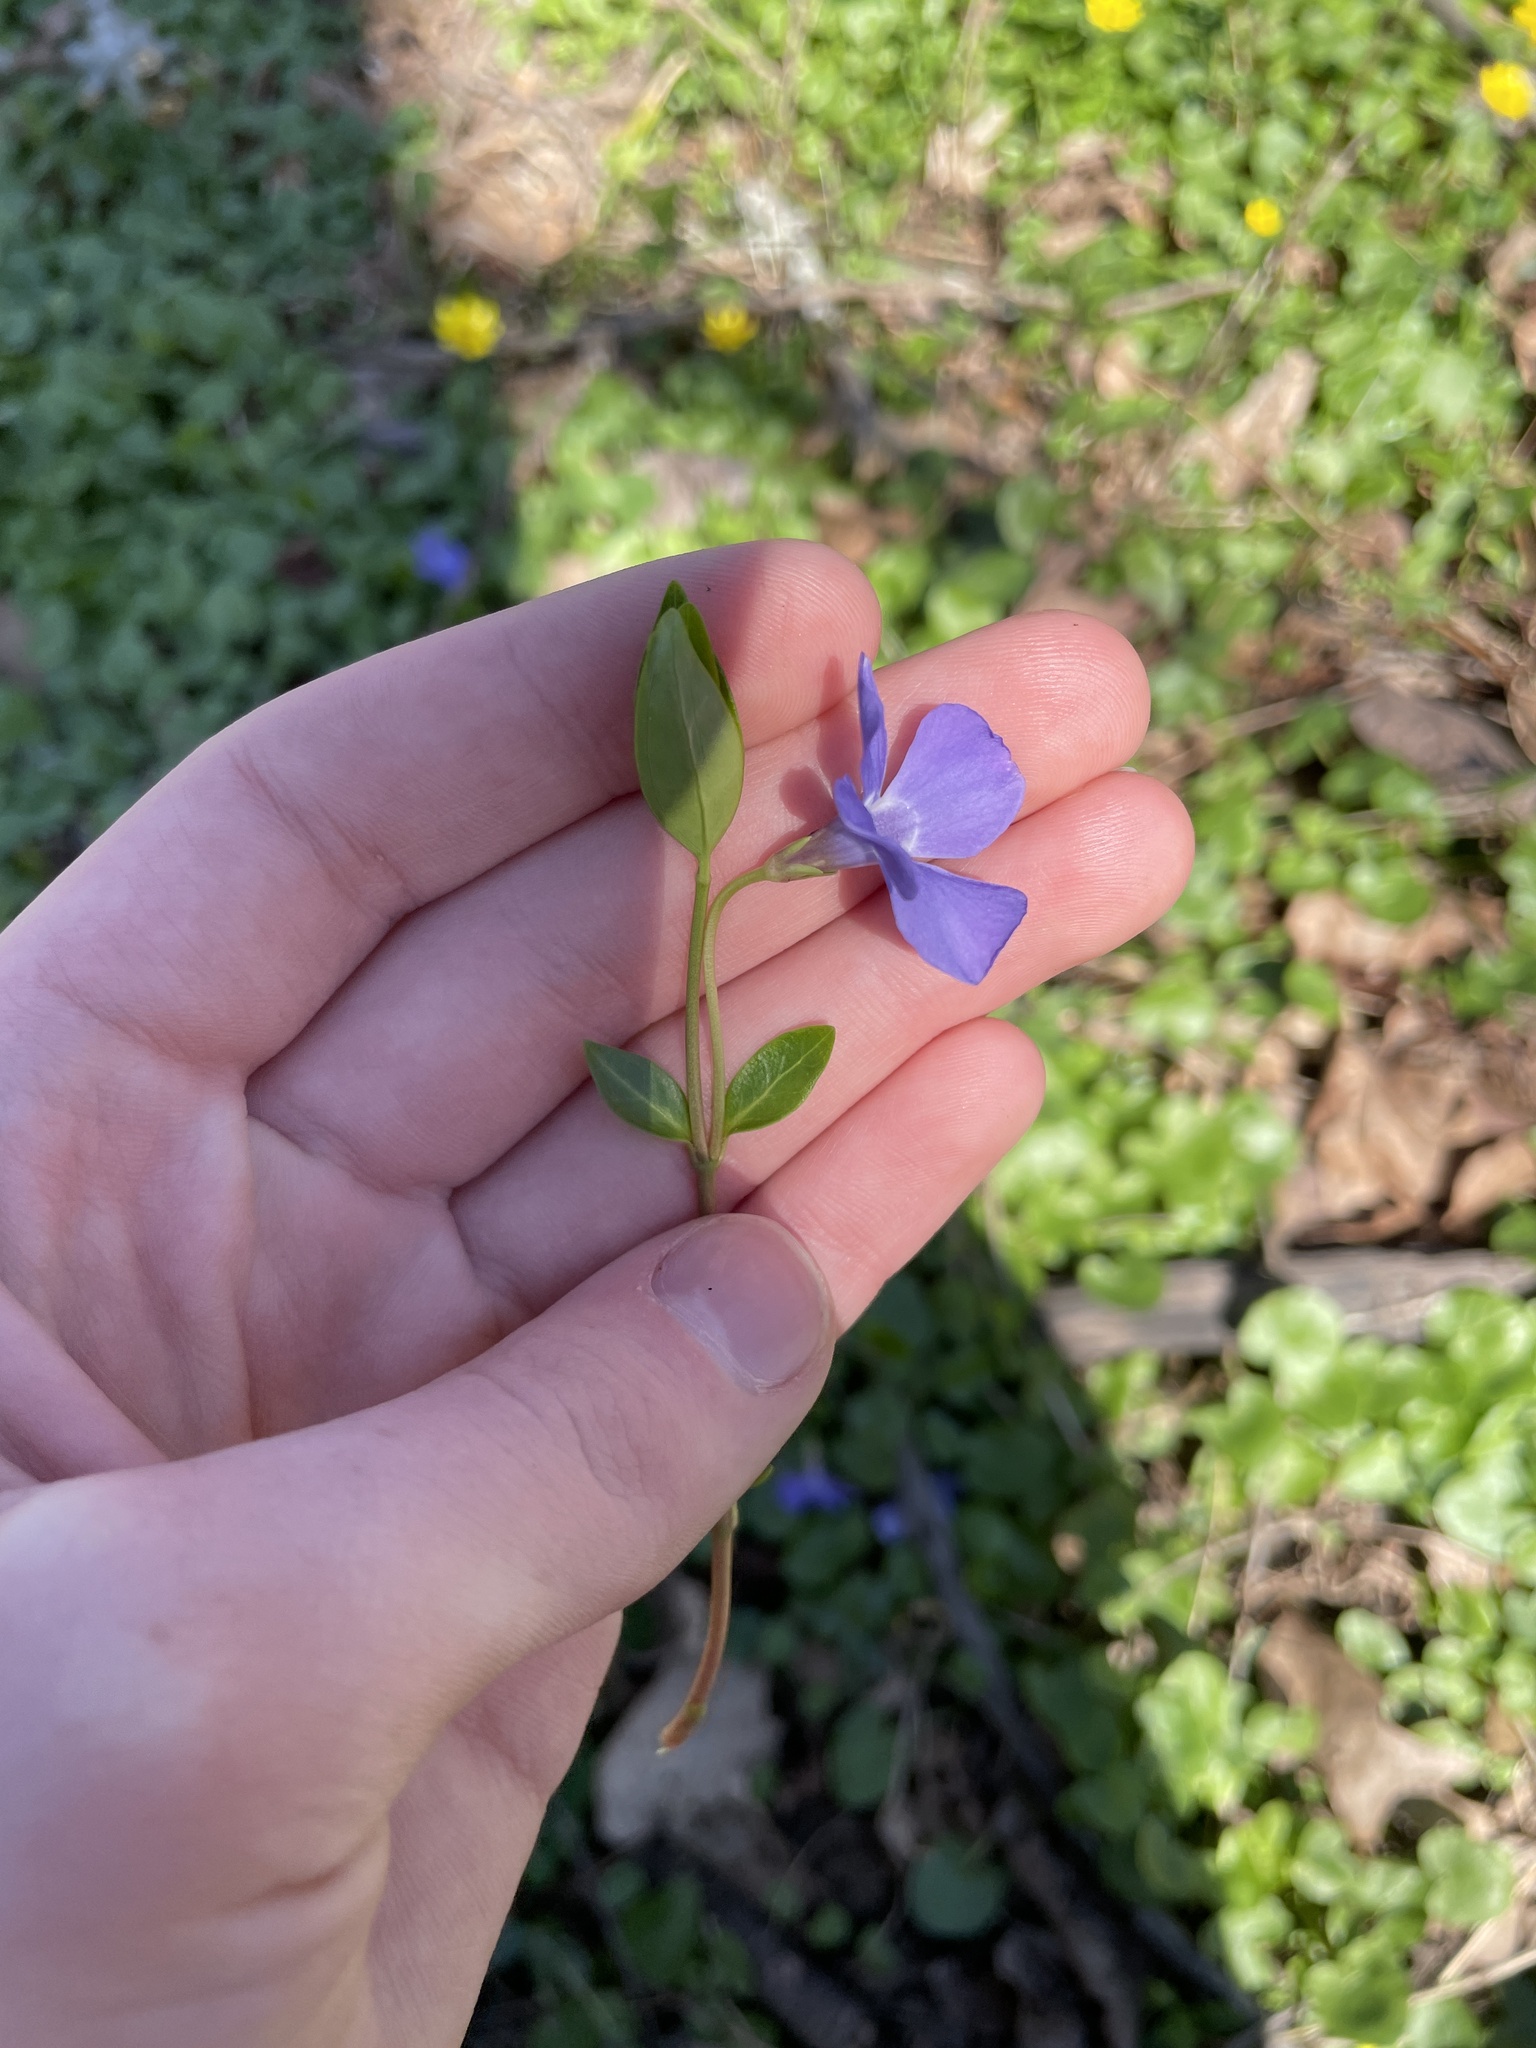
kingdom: Plantae
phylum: Tracheophyta
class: Magnoliopsida
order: Gentianales
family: Apocynaceae
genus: Vinca
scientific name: Vinca minor
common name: Lesser periwinkle
